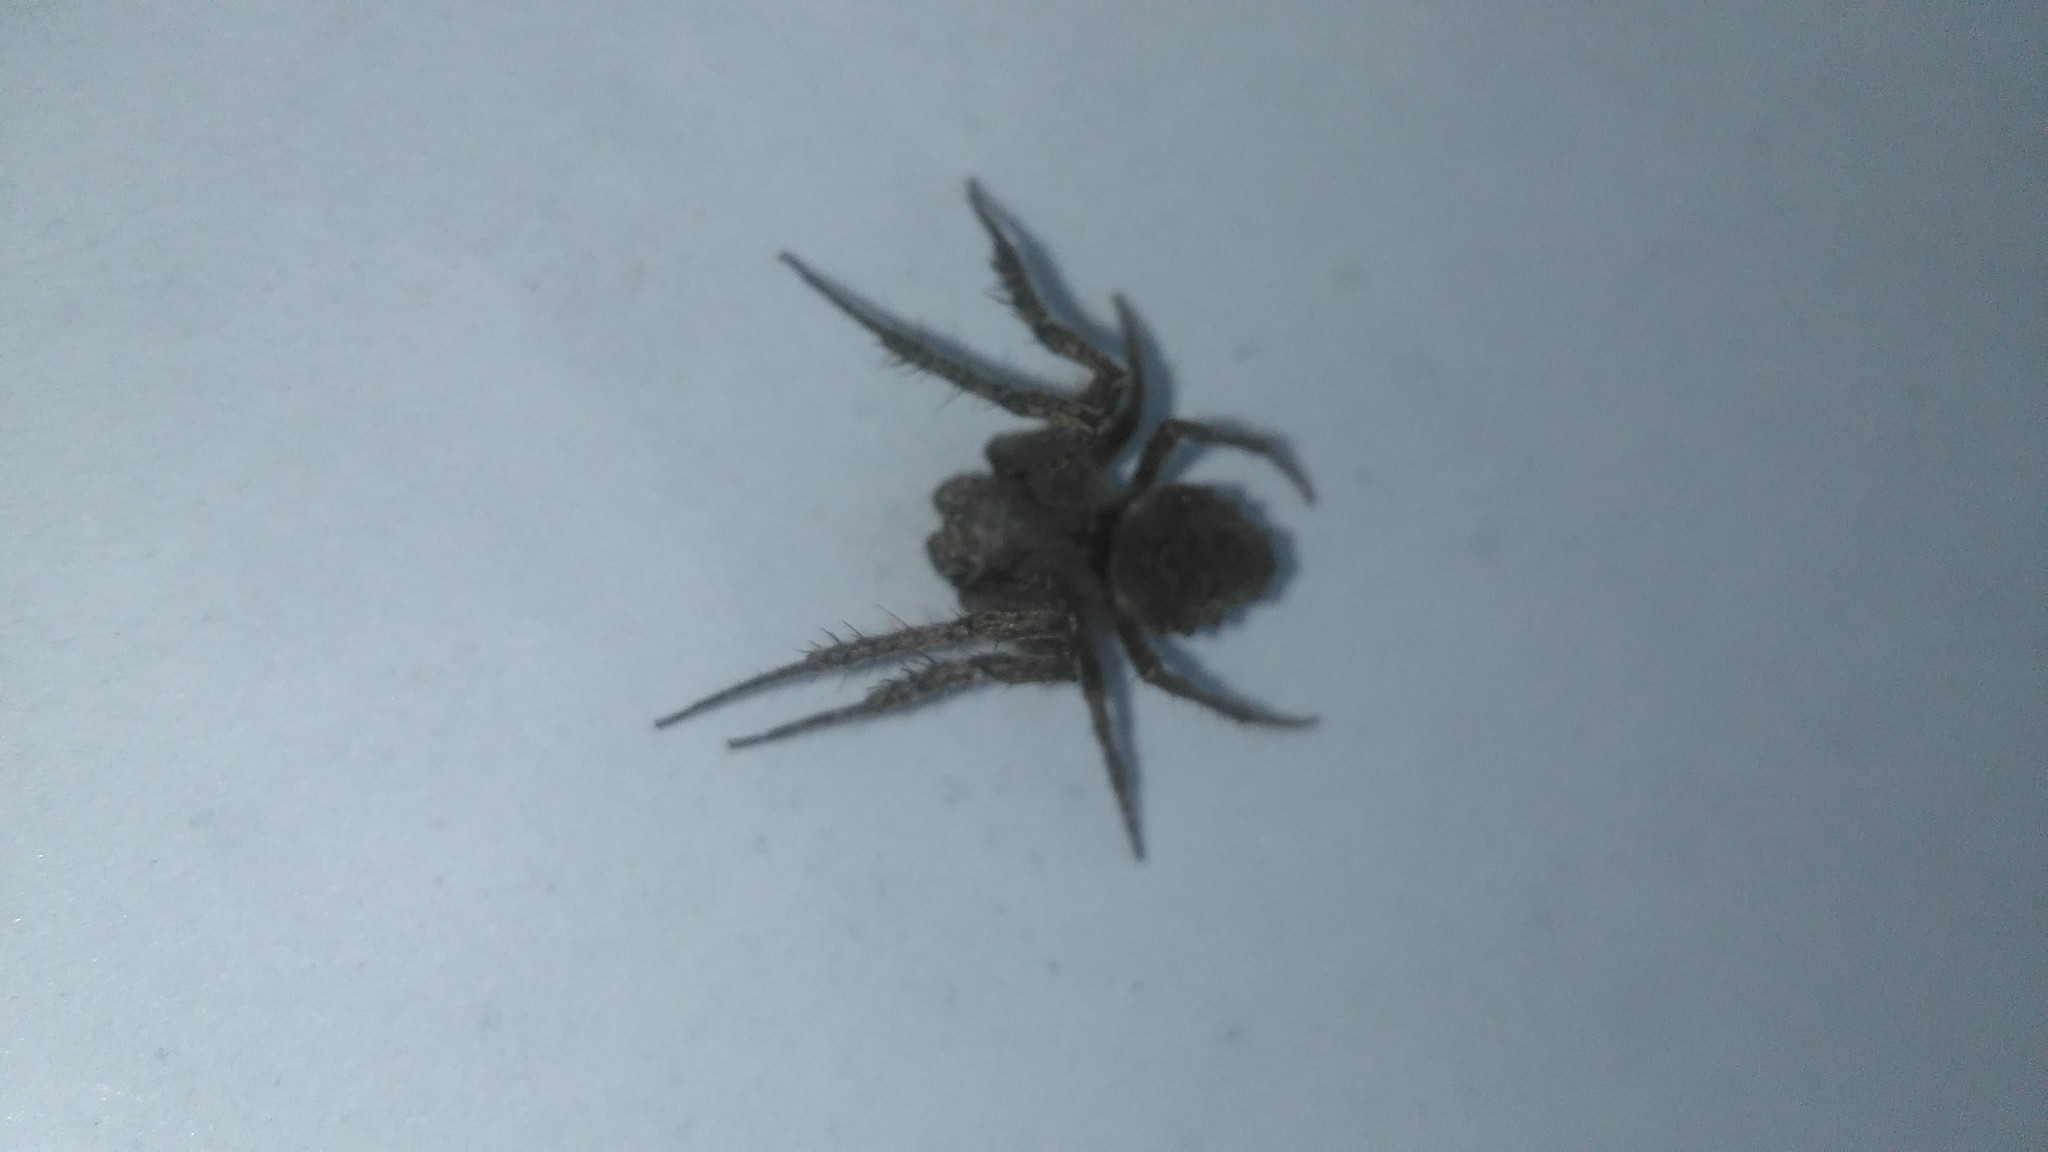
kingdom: Animalia
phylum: Arthropoda
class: Arachnida
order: Araneae
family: Araneidae
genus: Parawixia
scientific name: Parawixia audax
